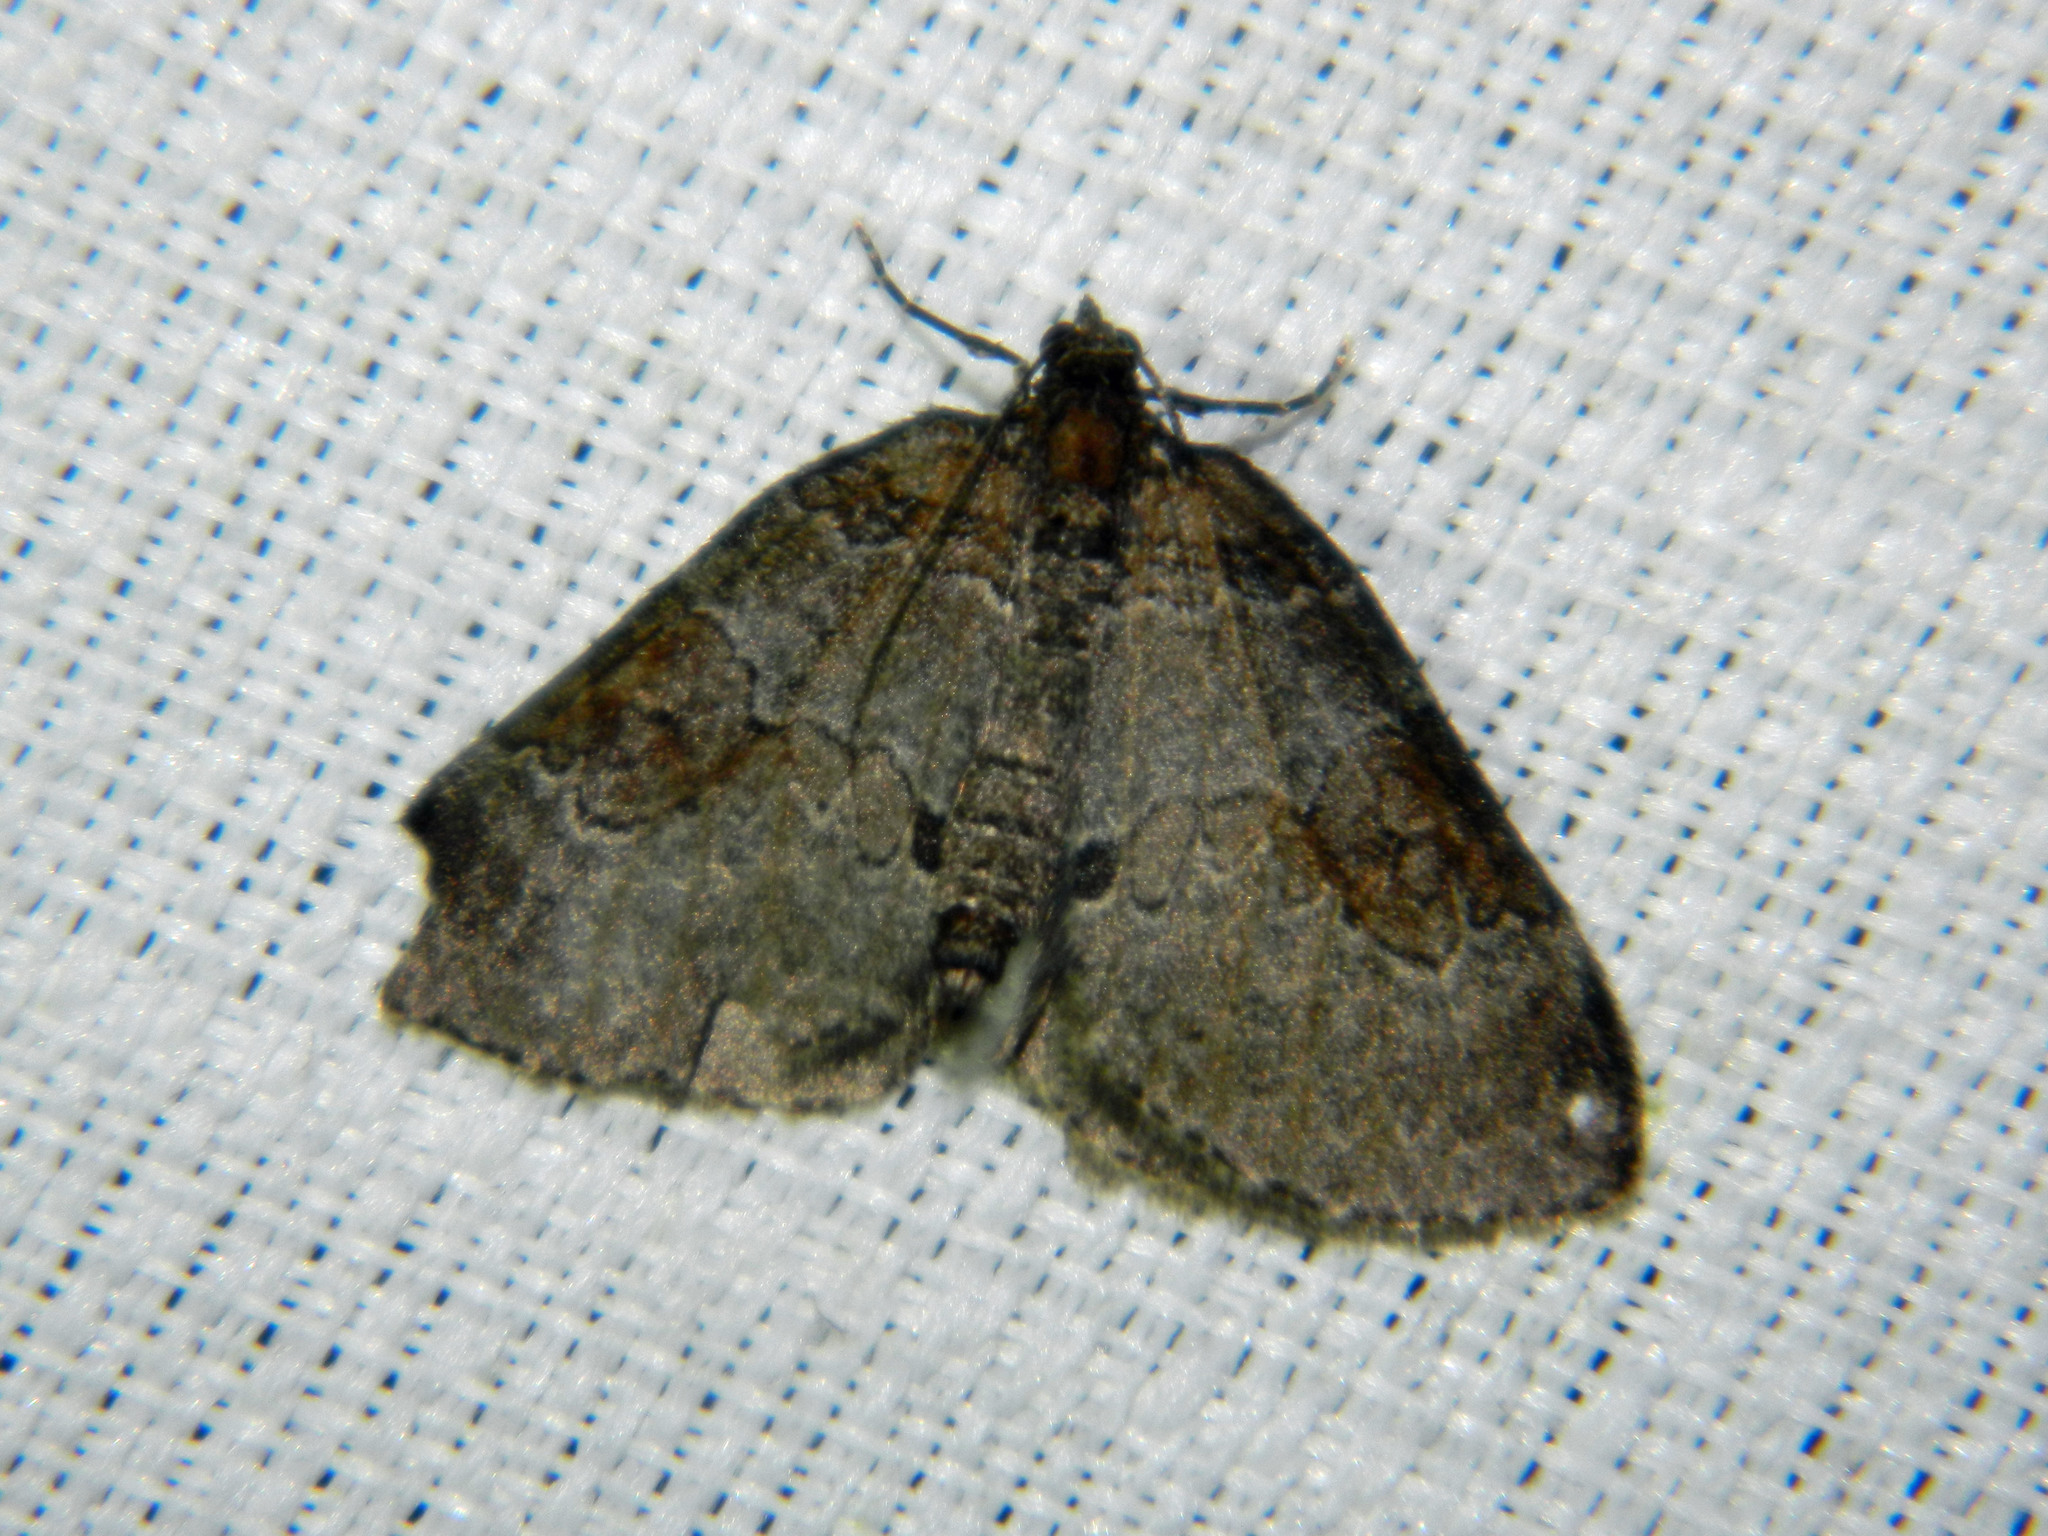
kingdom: Animalia
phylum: Arthropoda
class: Insecta
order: Lepidoptera
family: Geometridae
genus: Plemyria
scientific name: Plemyria georgii
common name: George's carpet moth
